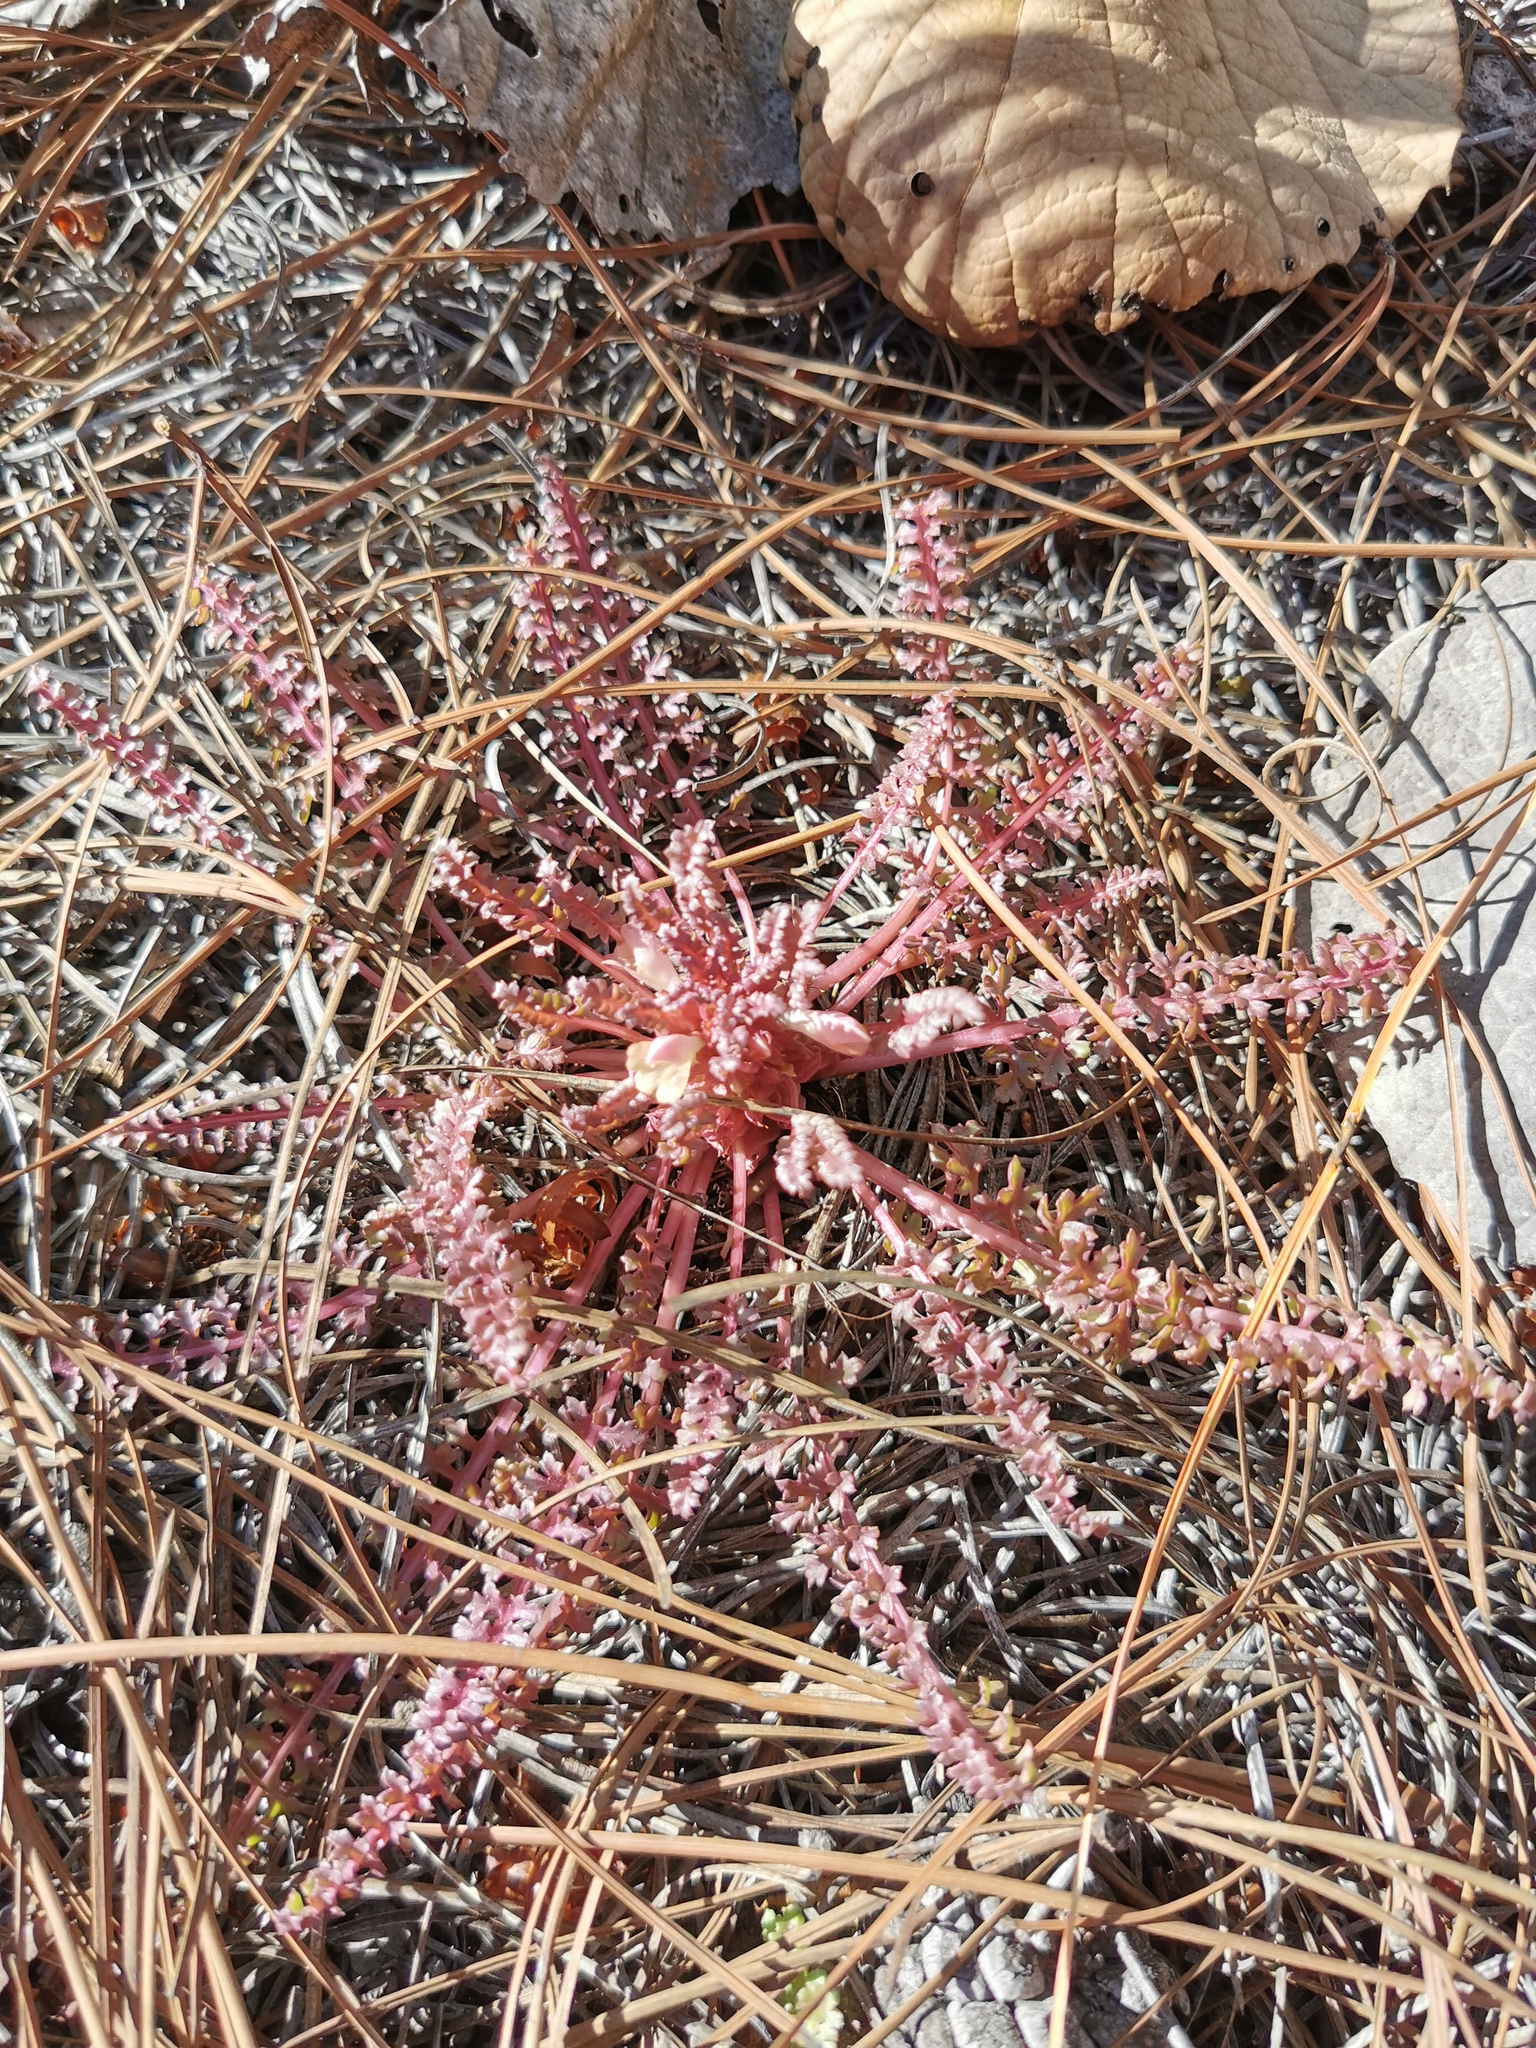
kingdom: Plantae
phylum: Tracheophyta
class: Magnoliopsida
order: Lamiales
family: Orobanchaceae
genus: Pedicularis
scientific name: Pedicularis gordonii
